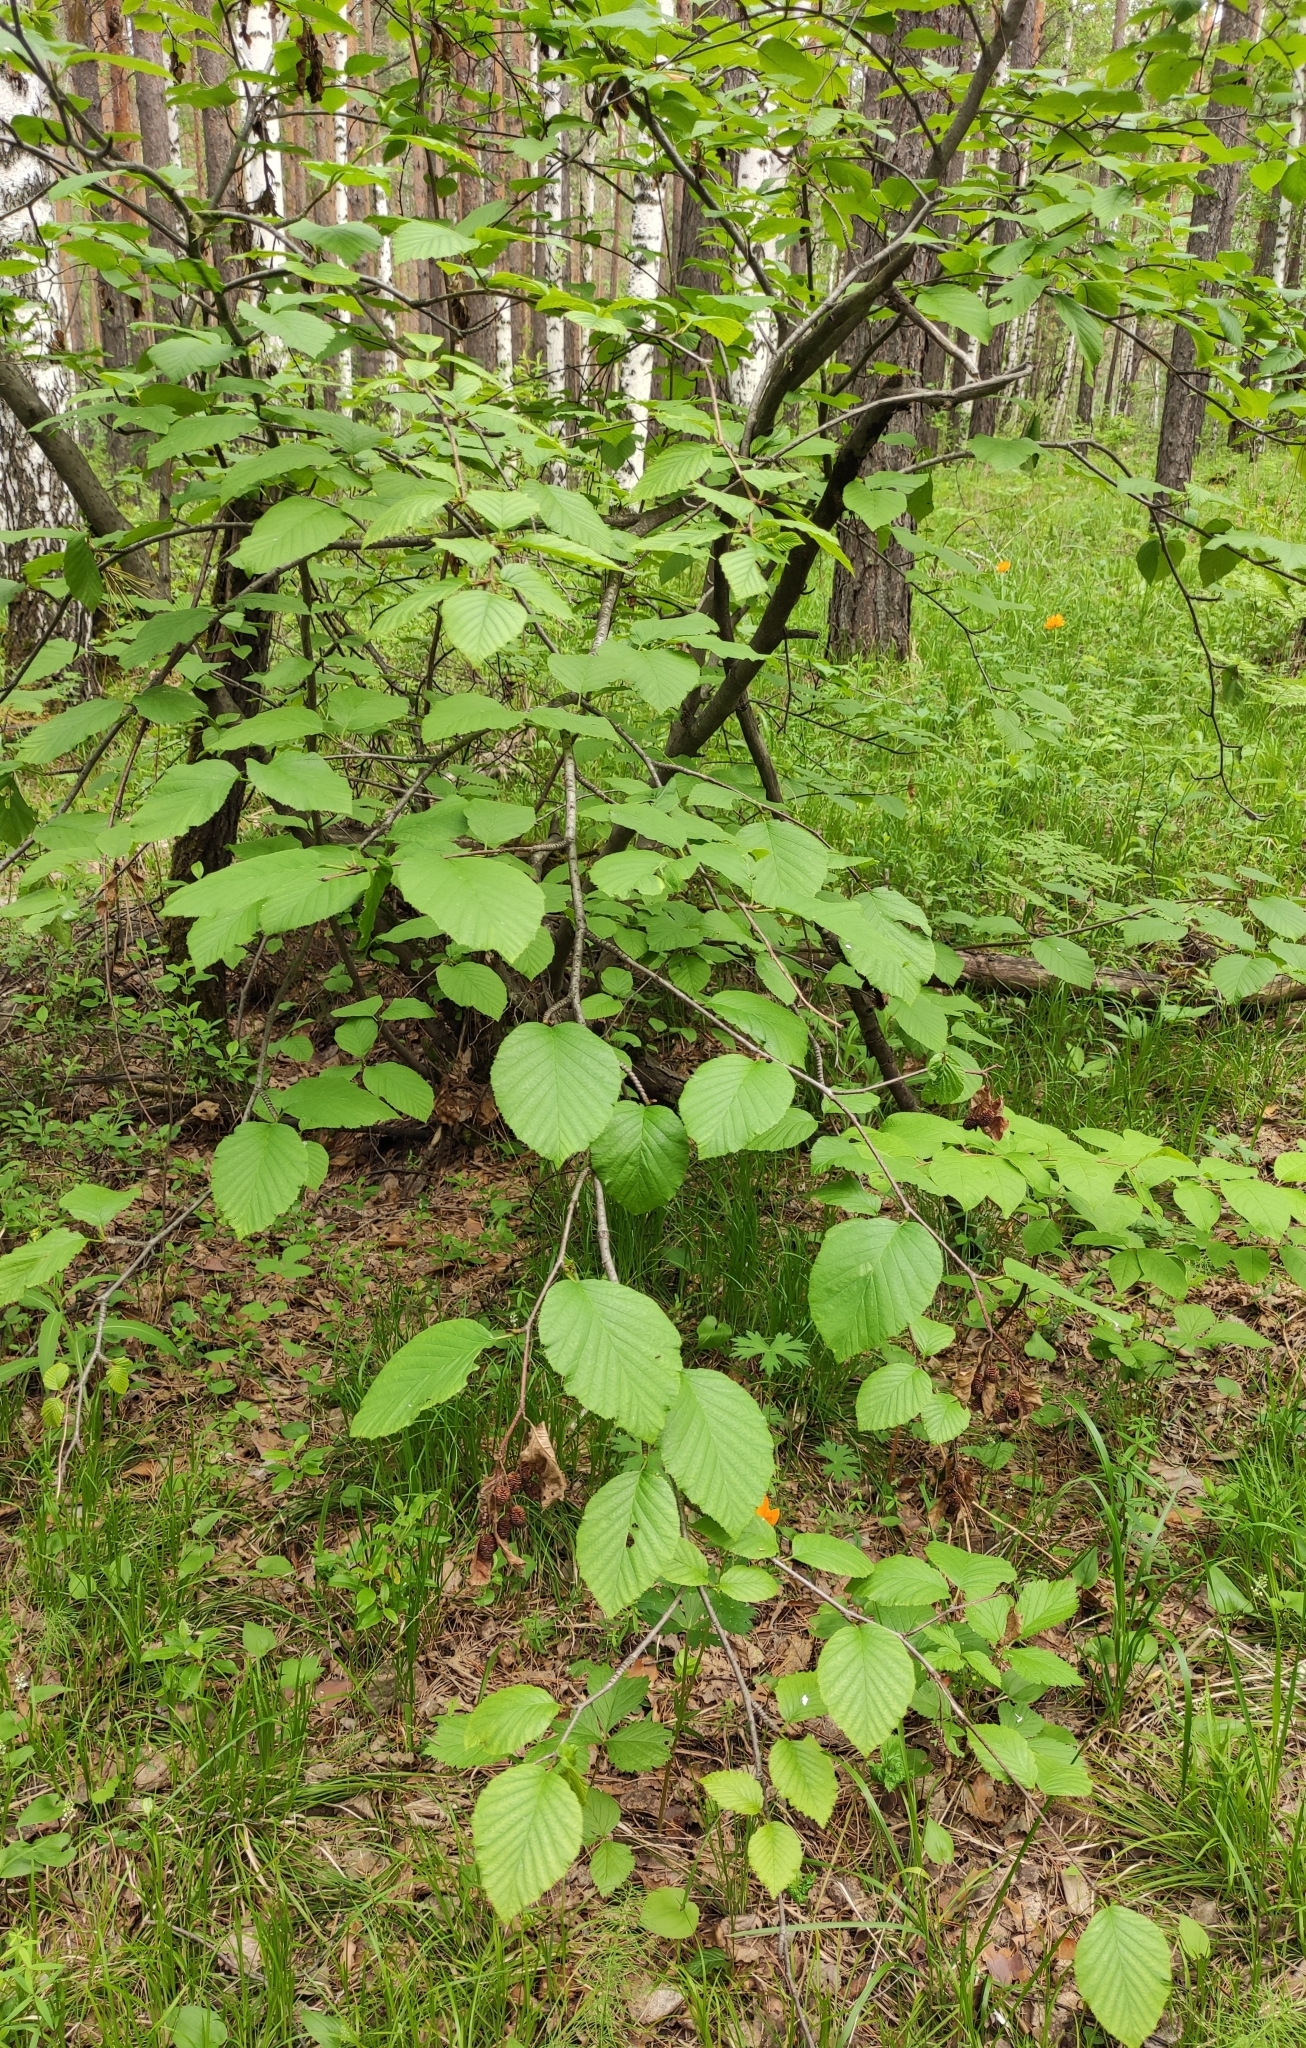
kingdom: Plantae
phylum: Tracheophyta
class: Magnoliopsida
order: Fagales
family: Betulaceae
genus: Alnus
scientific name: Alnus alnobetula
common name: Green alder
